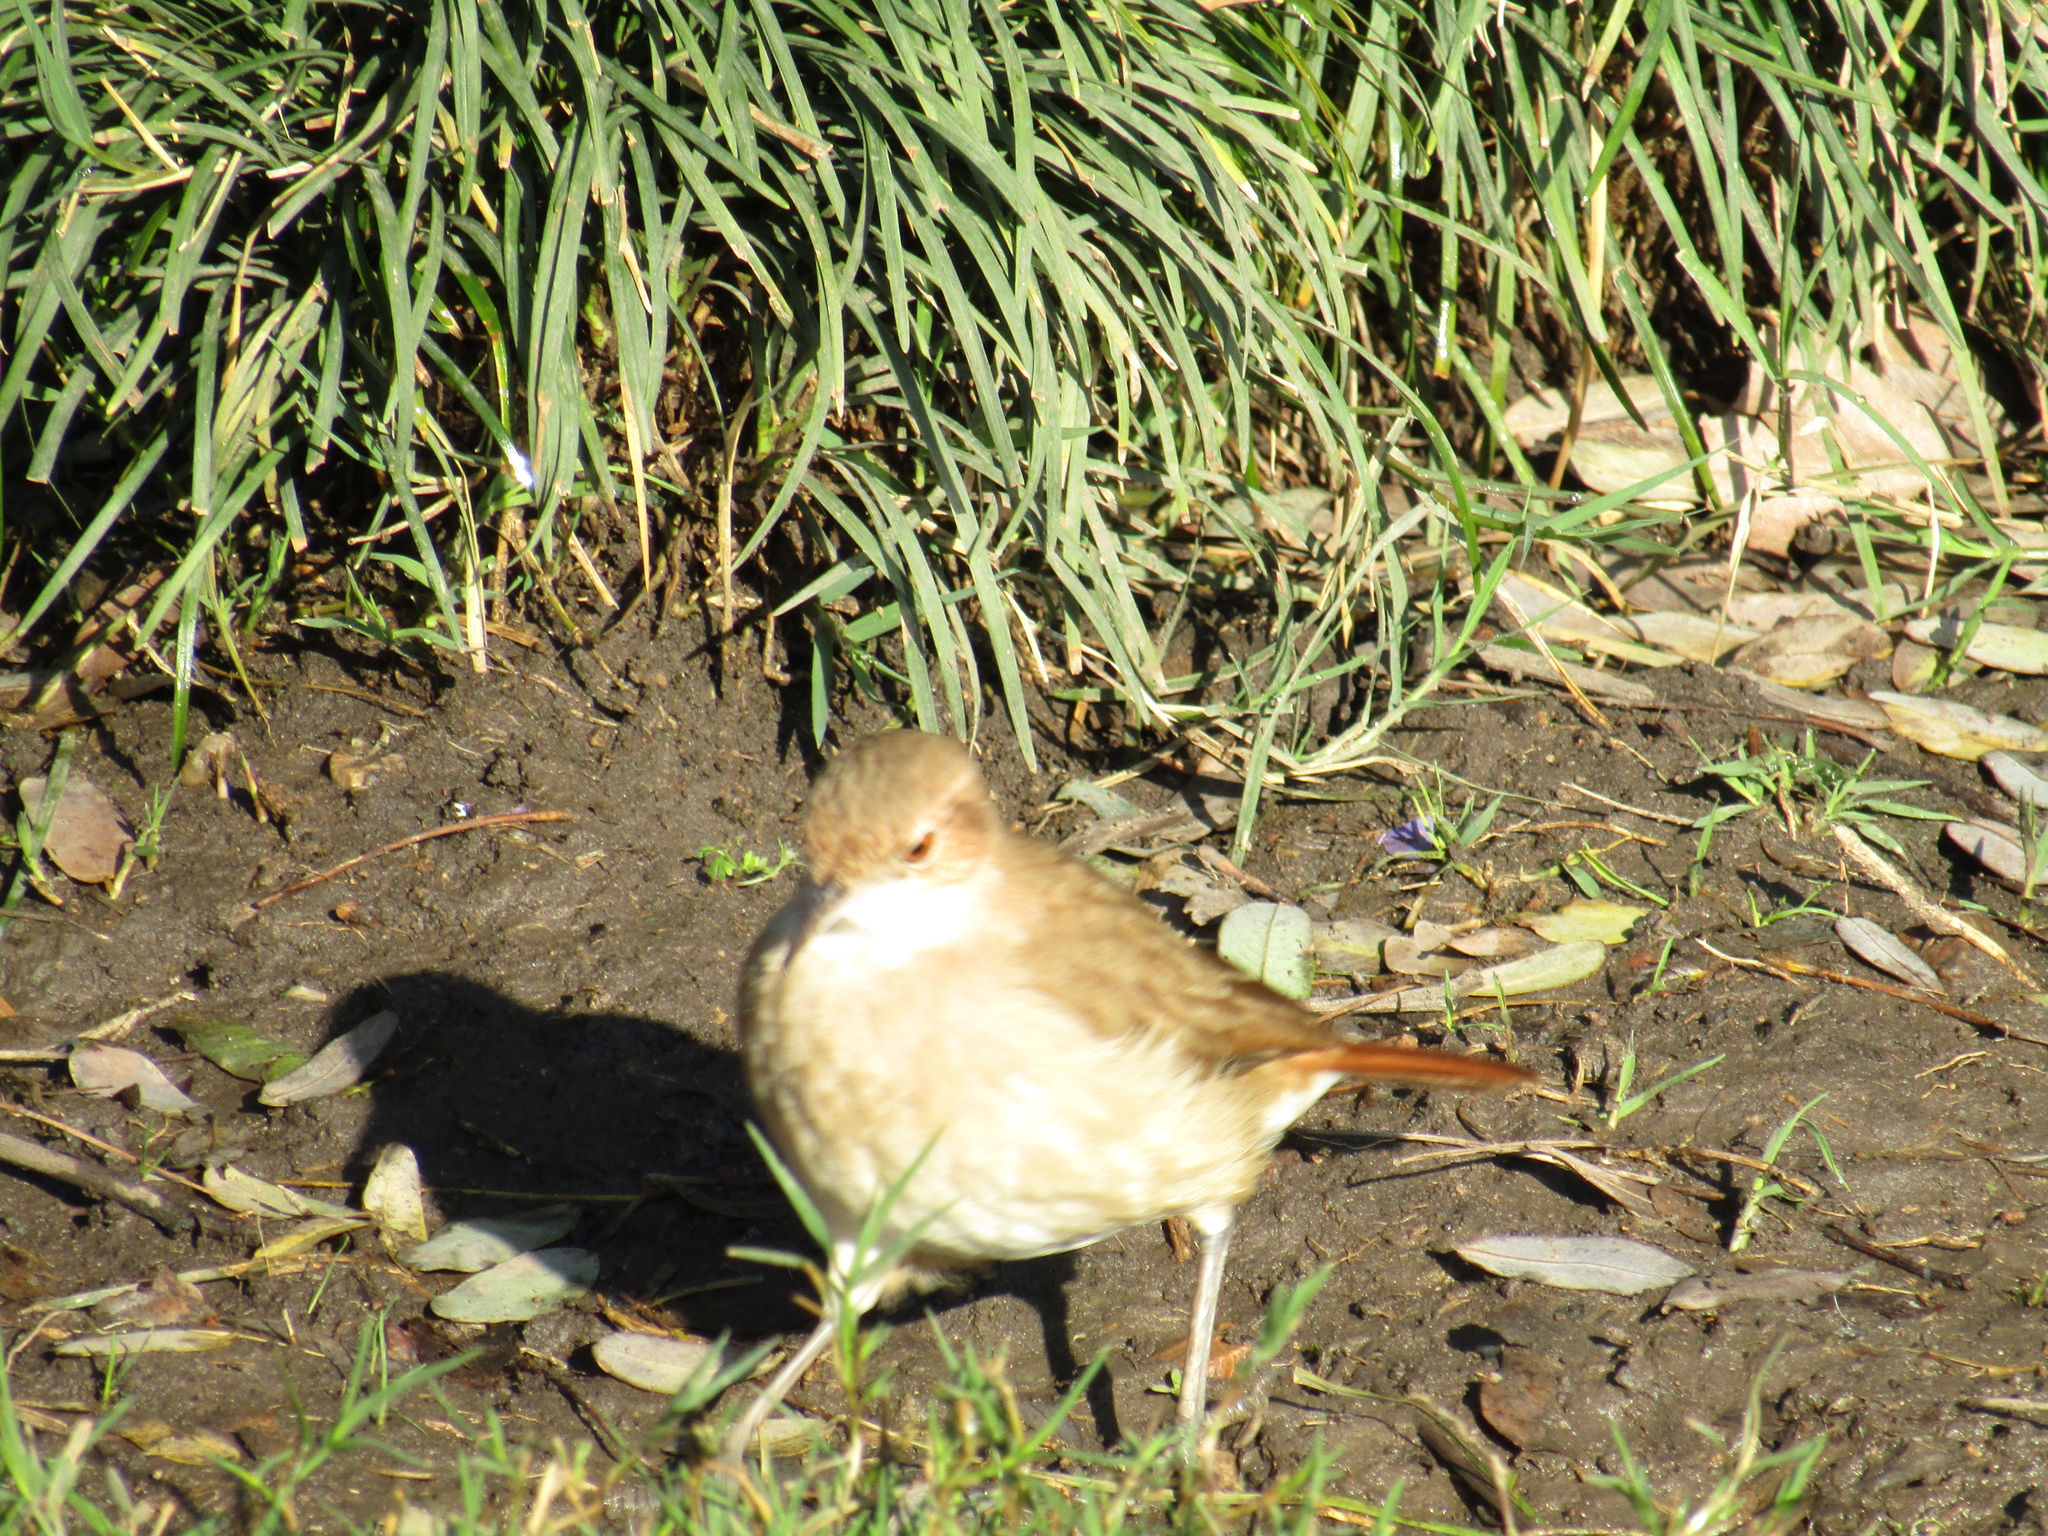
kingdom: Animalia
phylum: Chordata
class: Aves
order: Passeriformes
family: Furnariidae
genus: Furnarius
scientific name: Furnarius rufus
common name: Rufous hornero
